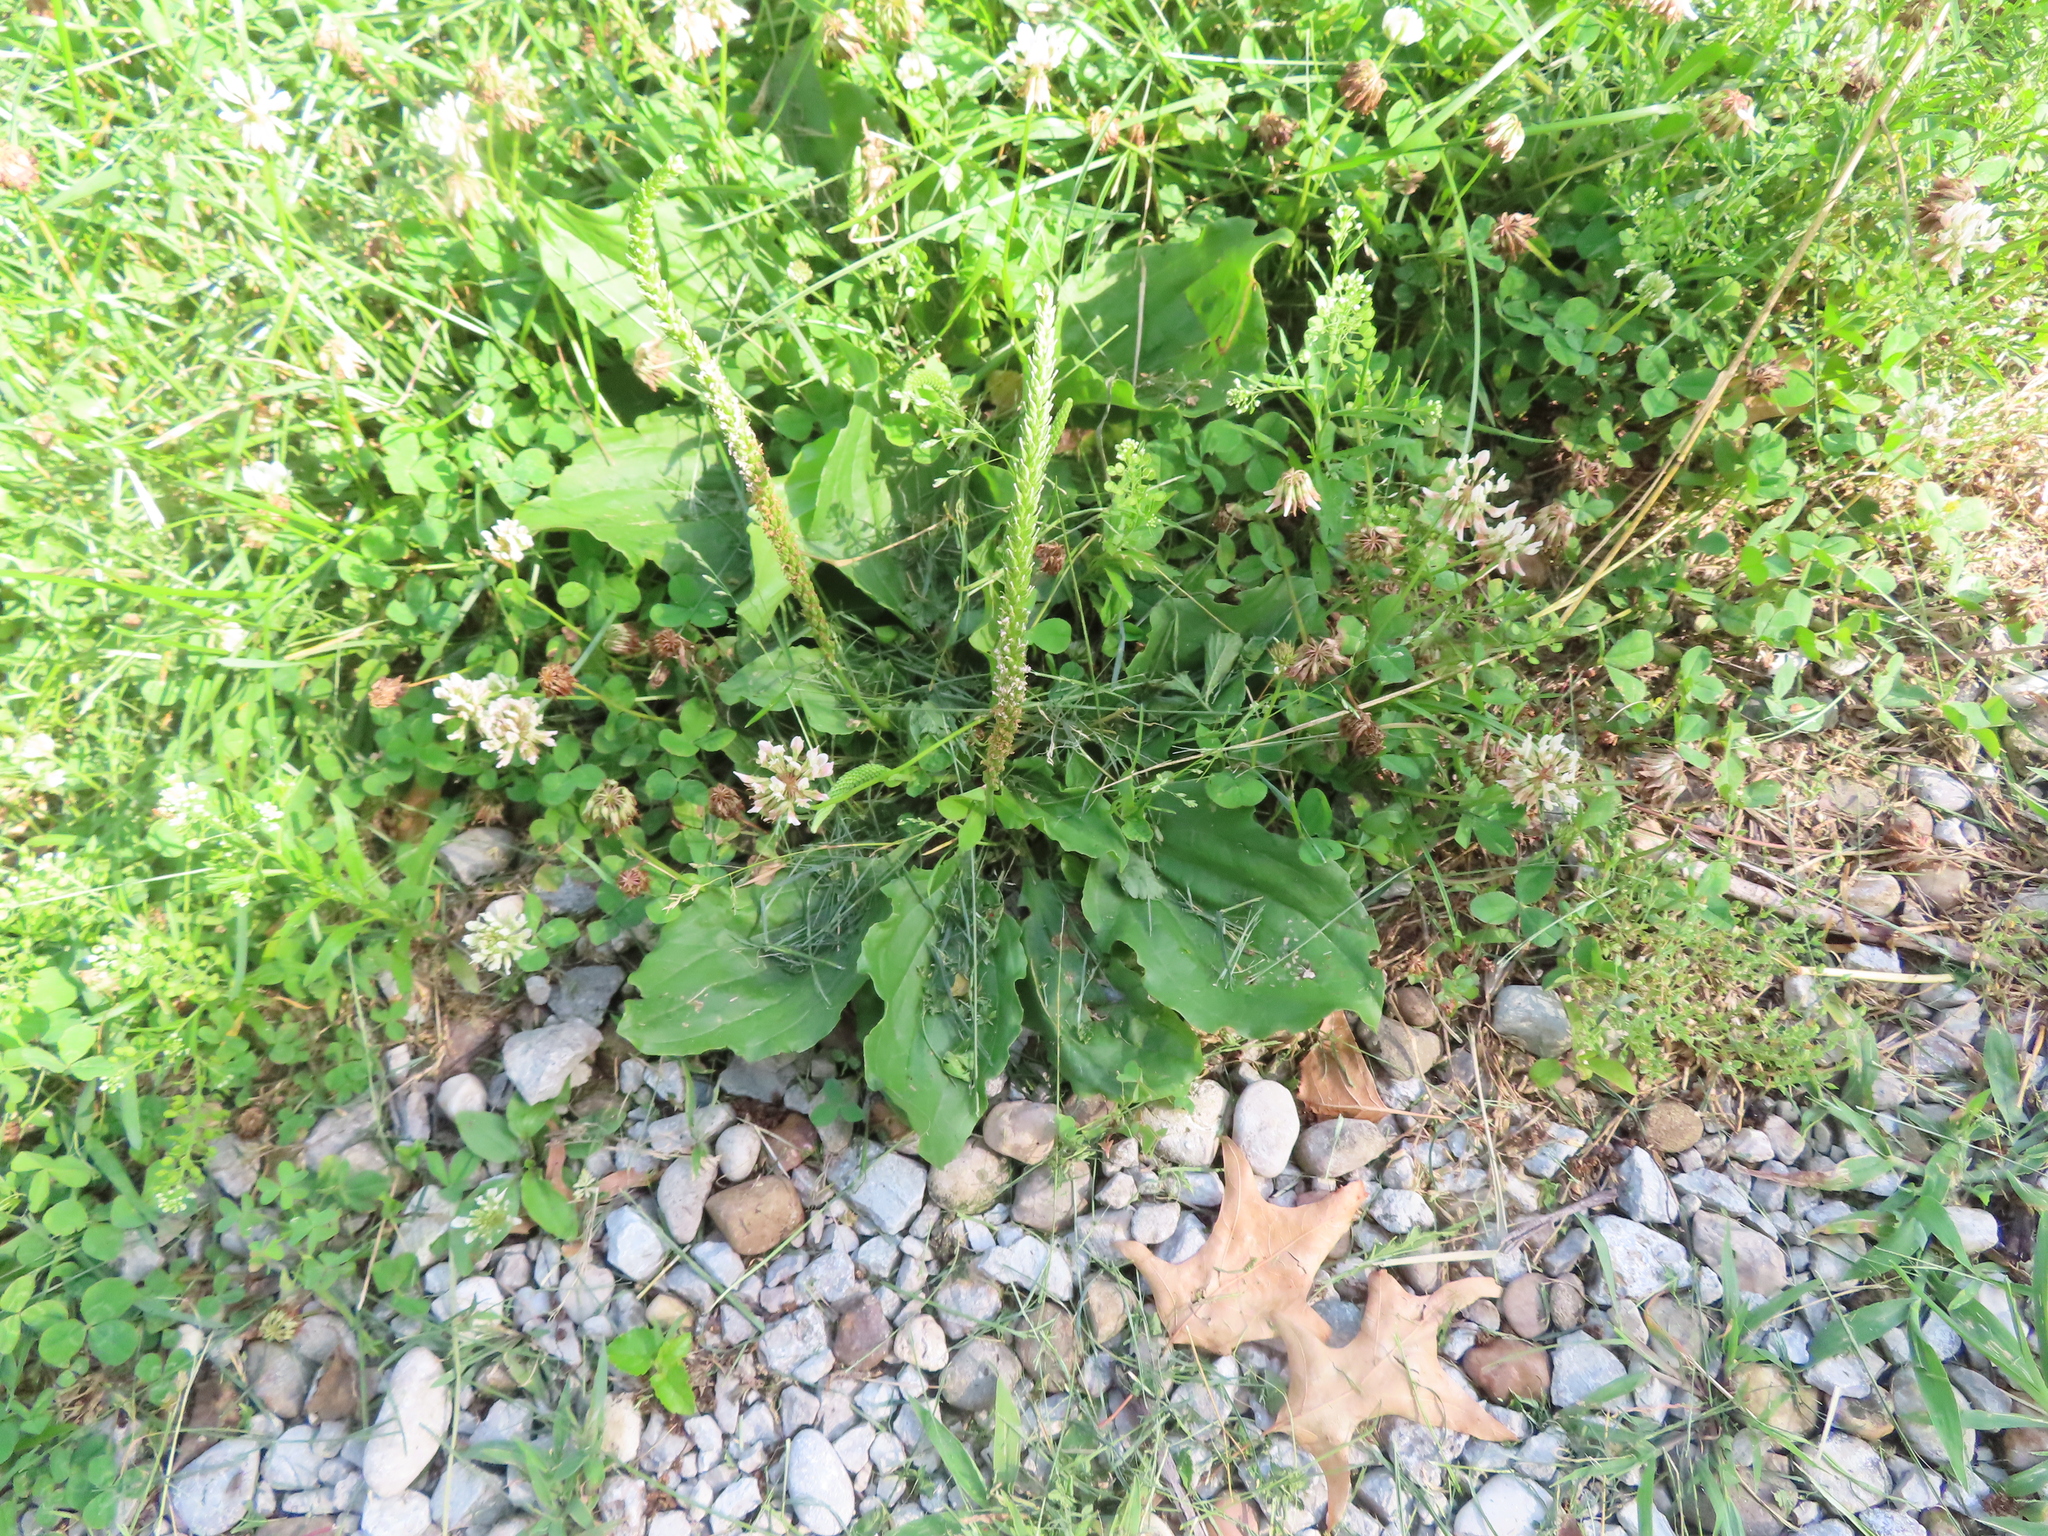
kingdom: Plantae
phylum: Tracheophyta
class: Magnoliopsida
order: Fabales
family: Fabaceae
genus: Trifolium
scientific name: Trifolium repens
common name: White clover
